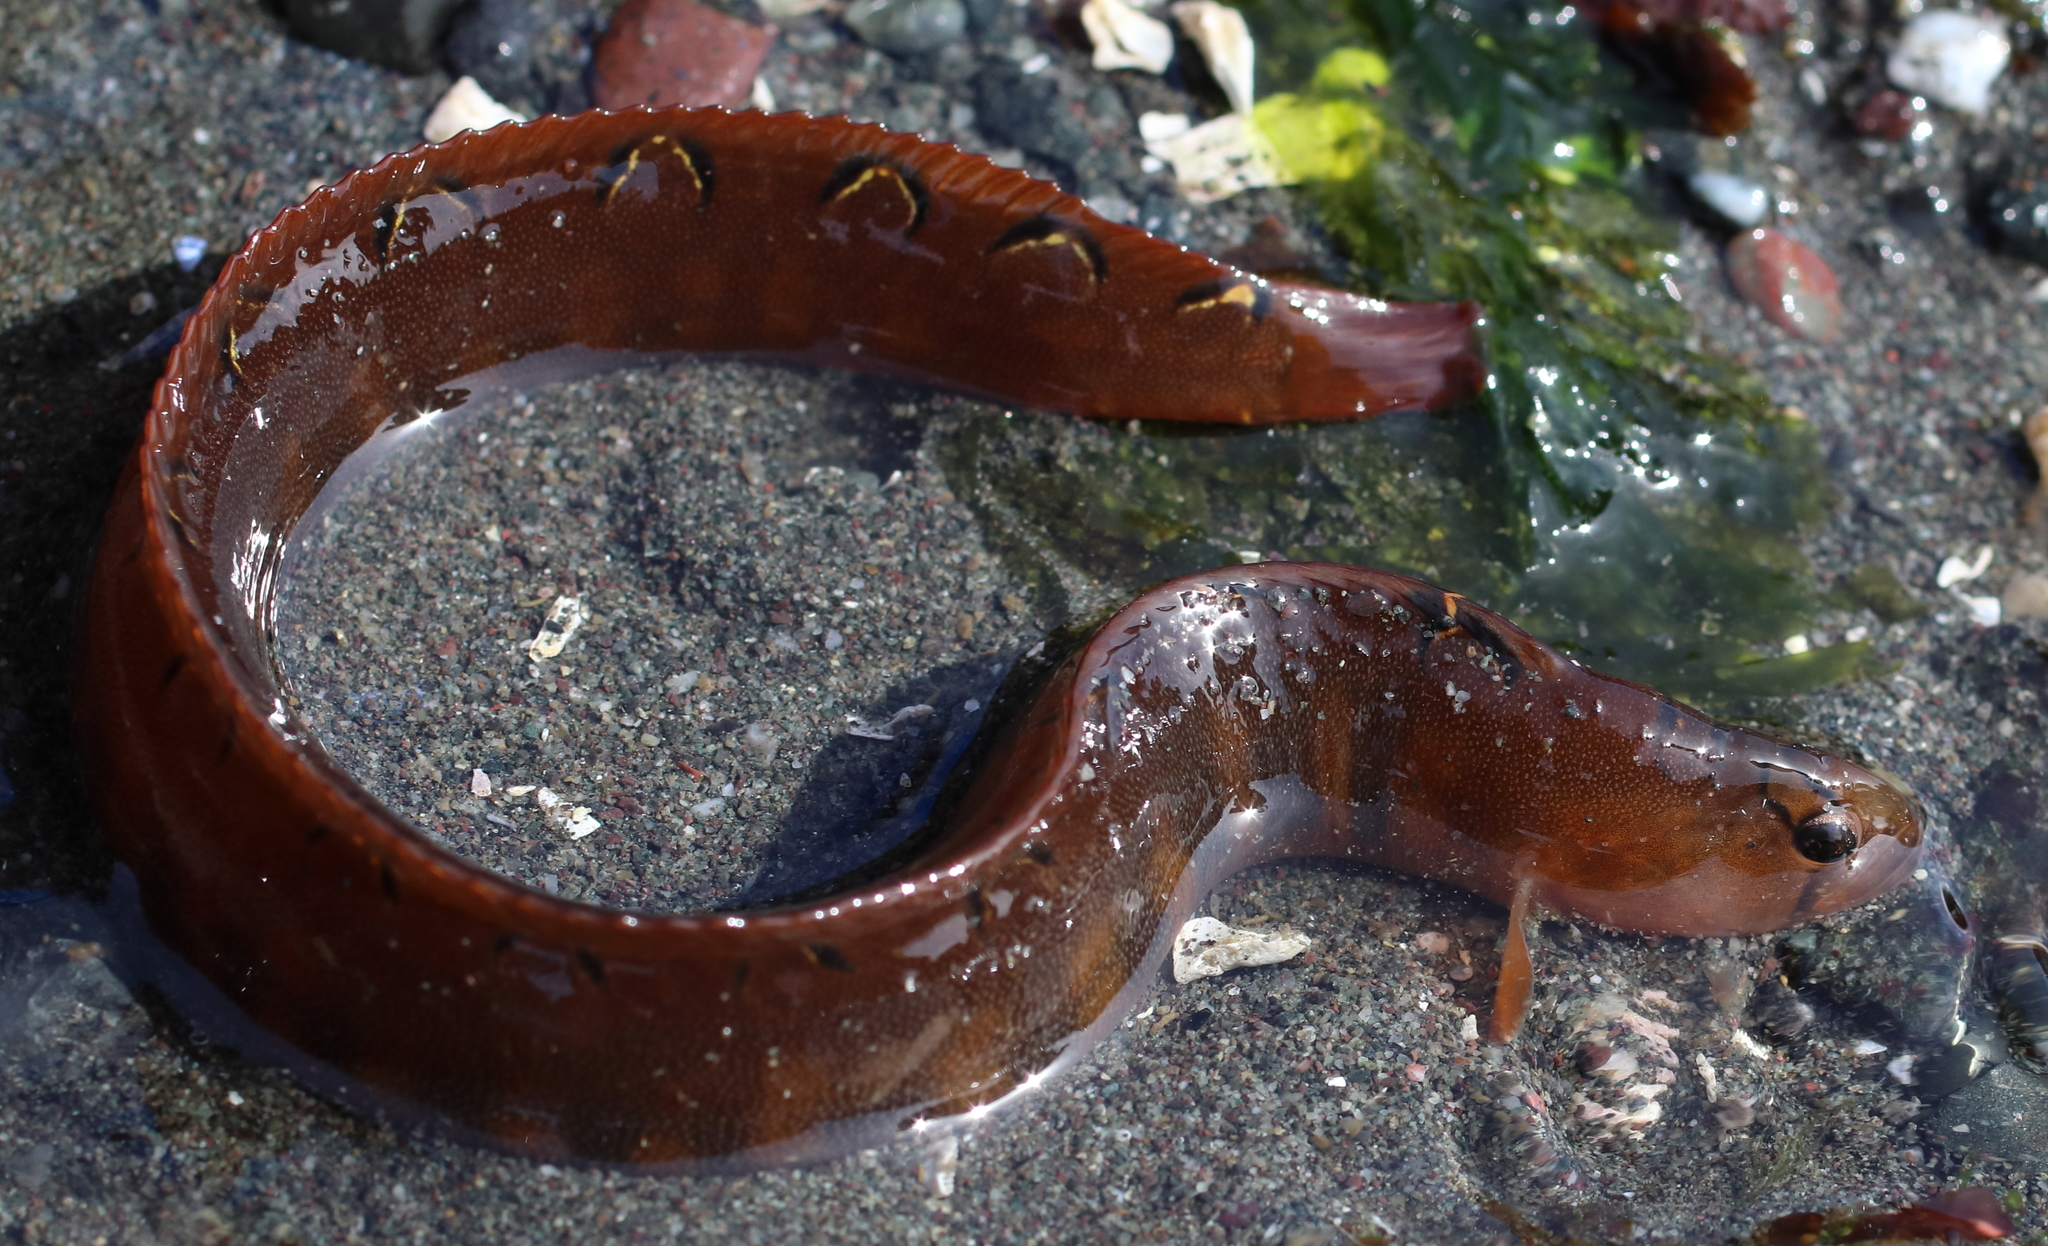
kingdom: Animalia
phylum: Chordata
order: Perciformes
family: Pholidae
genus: Pholis
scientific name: Pholis laeta
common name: Crescent gunnel
